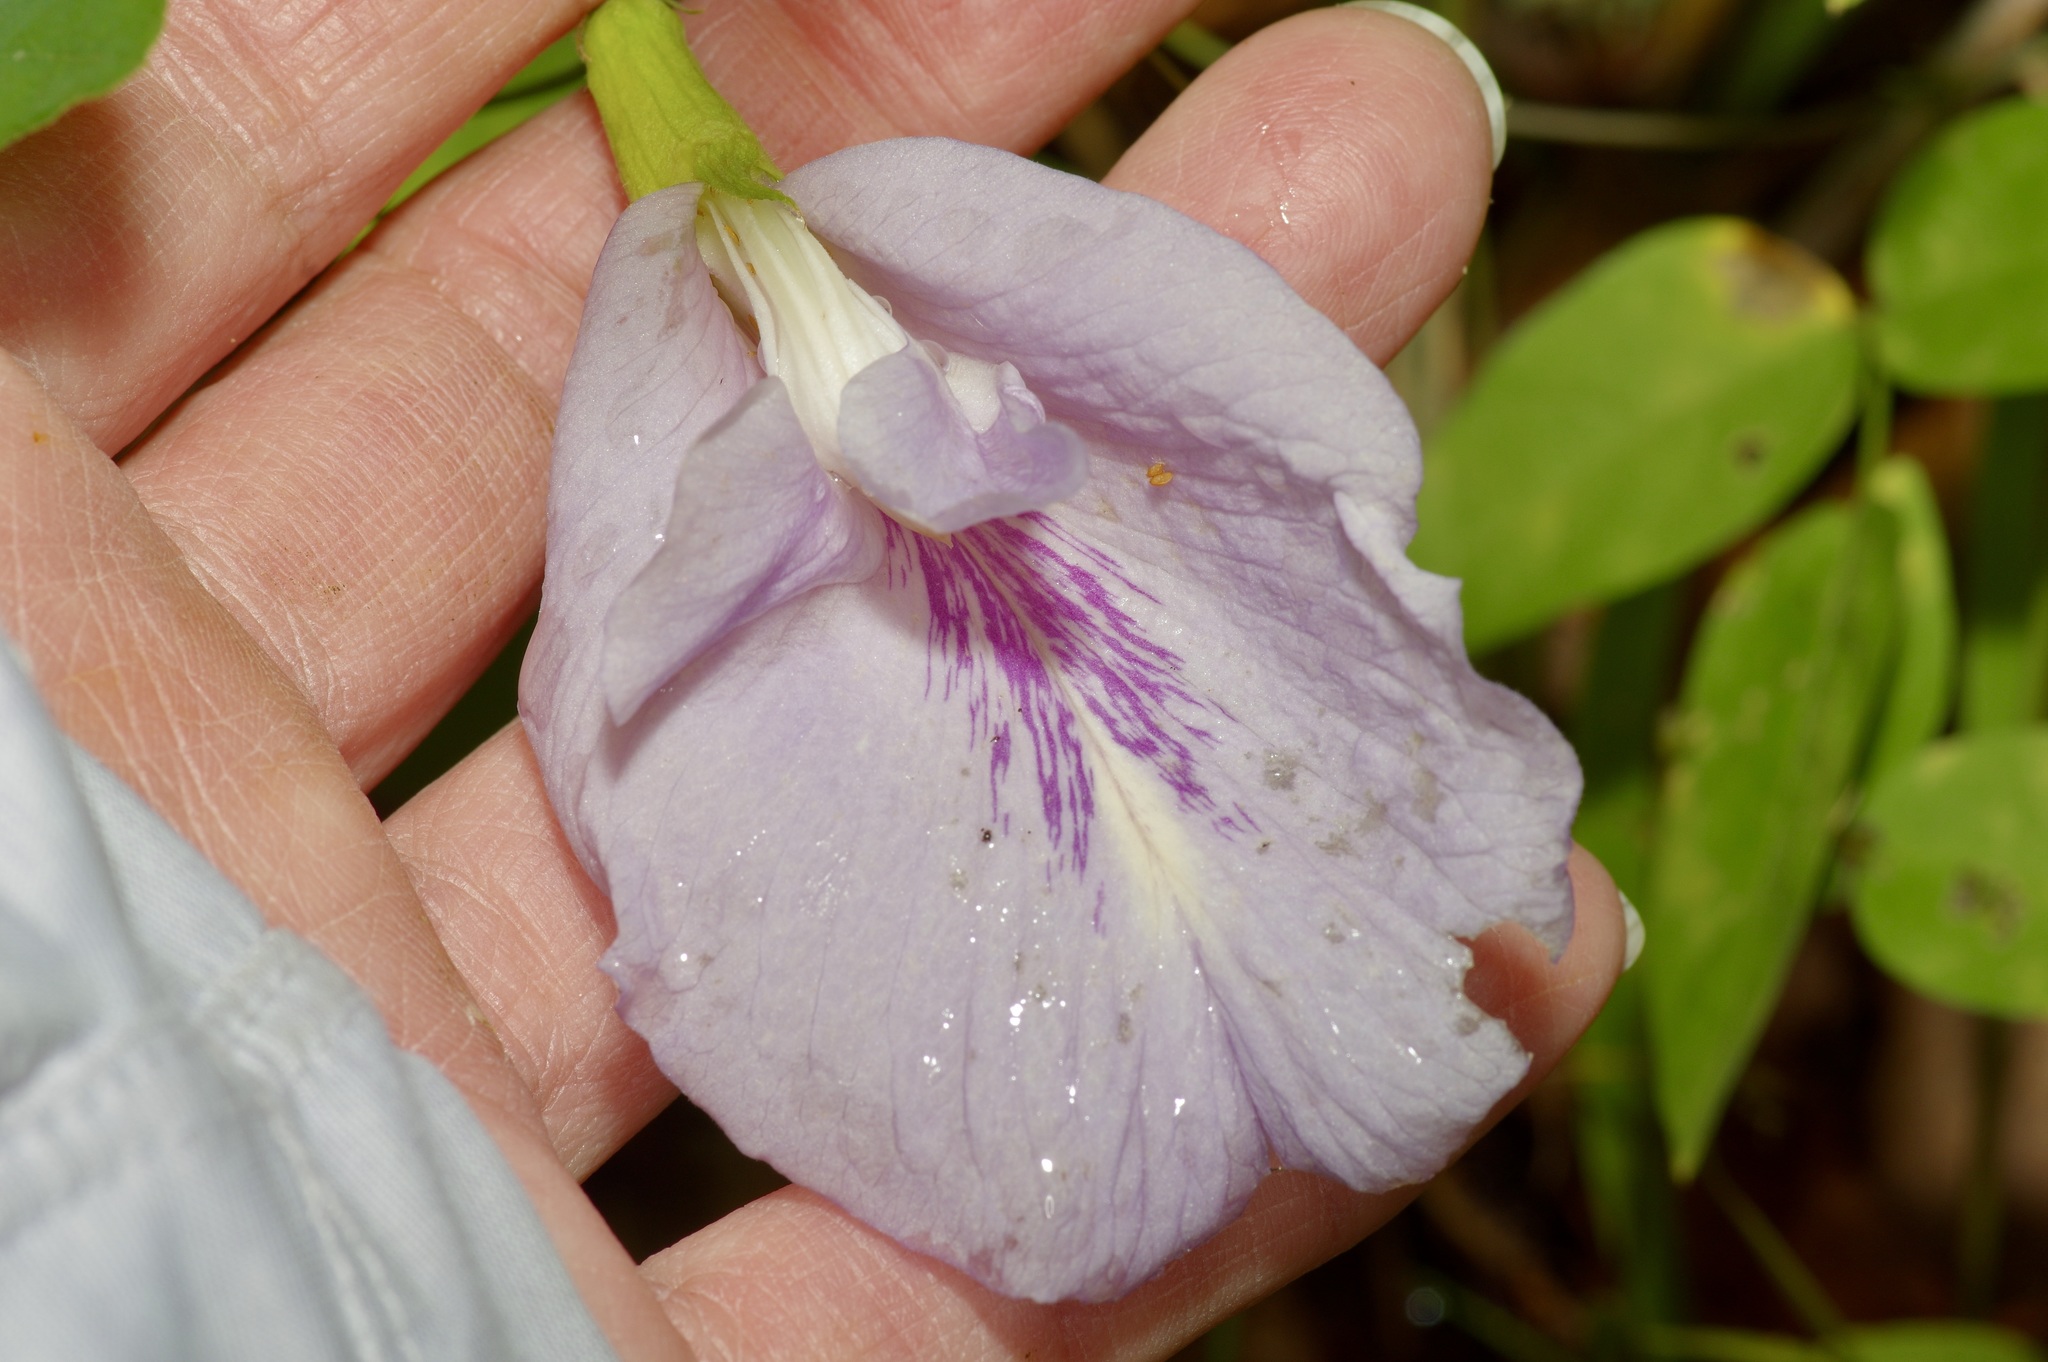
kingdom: Plantae
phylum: Tracheophyta
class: Magnoliopsida
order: Fabales
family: Fabaceae
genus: Clitoria
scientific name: Clitoria mariana
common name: Butterfly-pea
